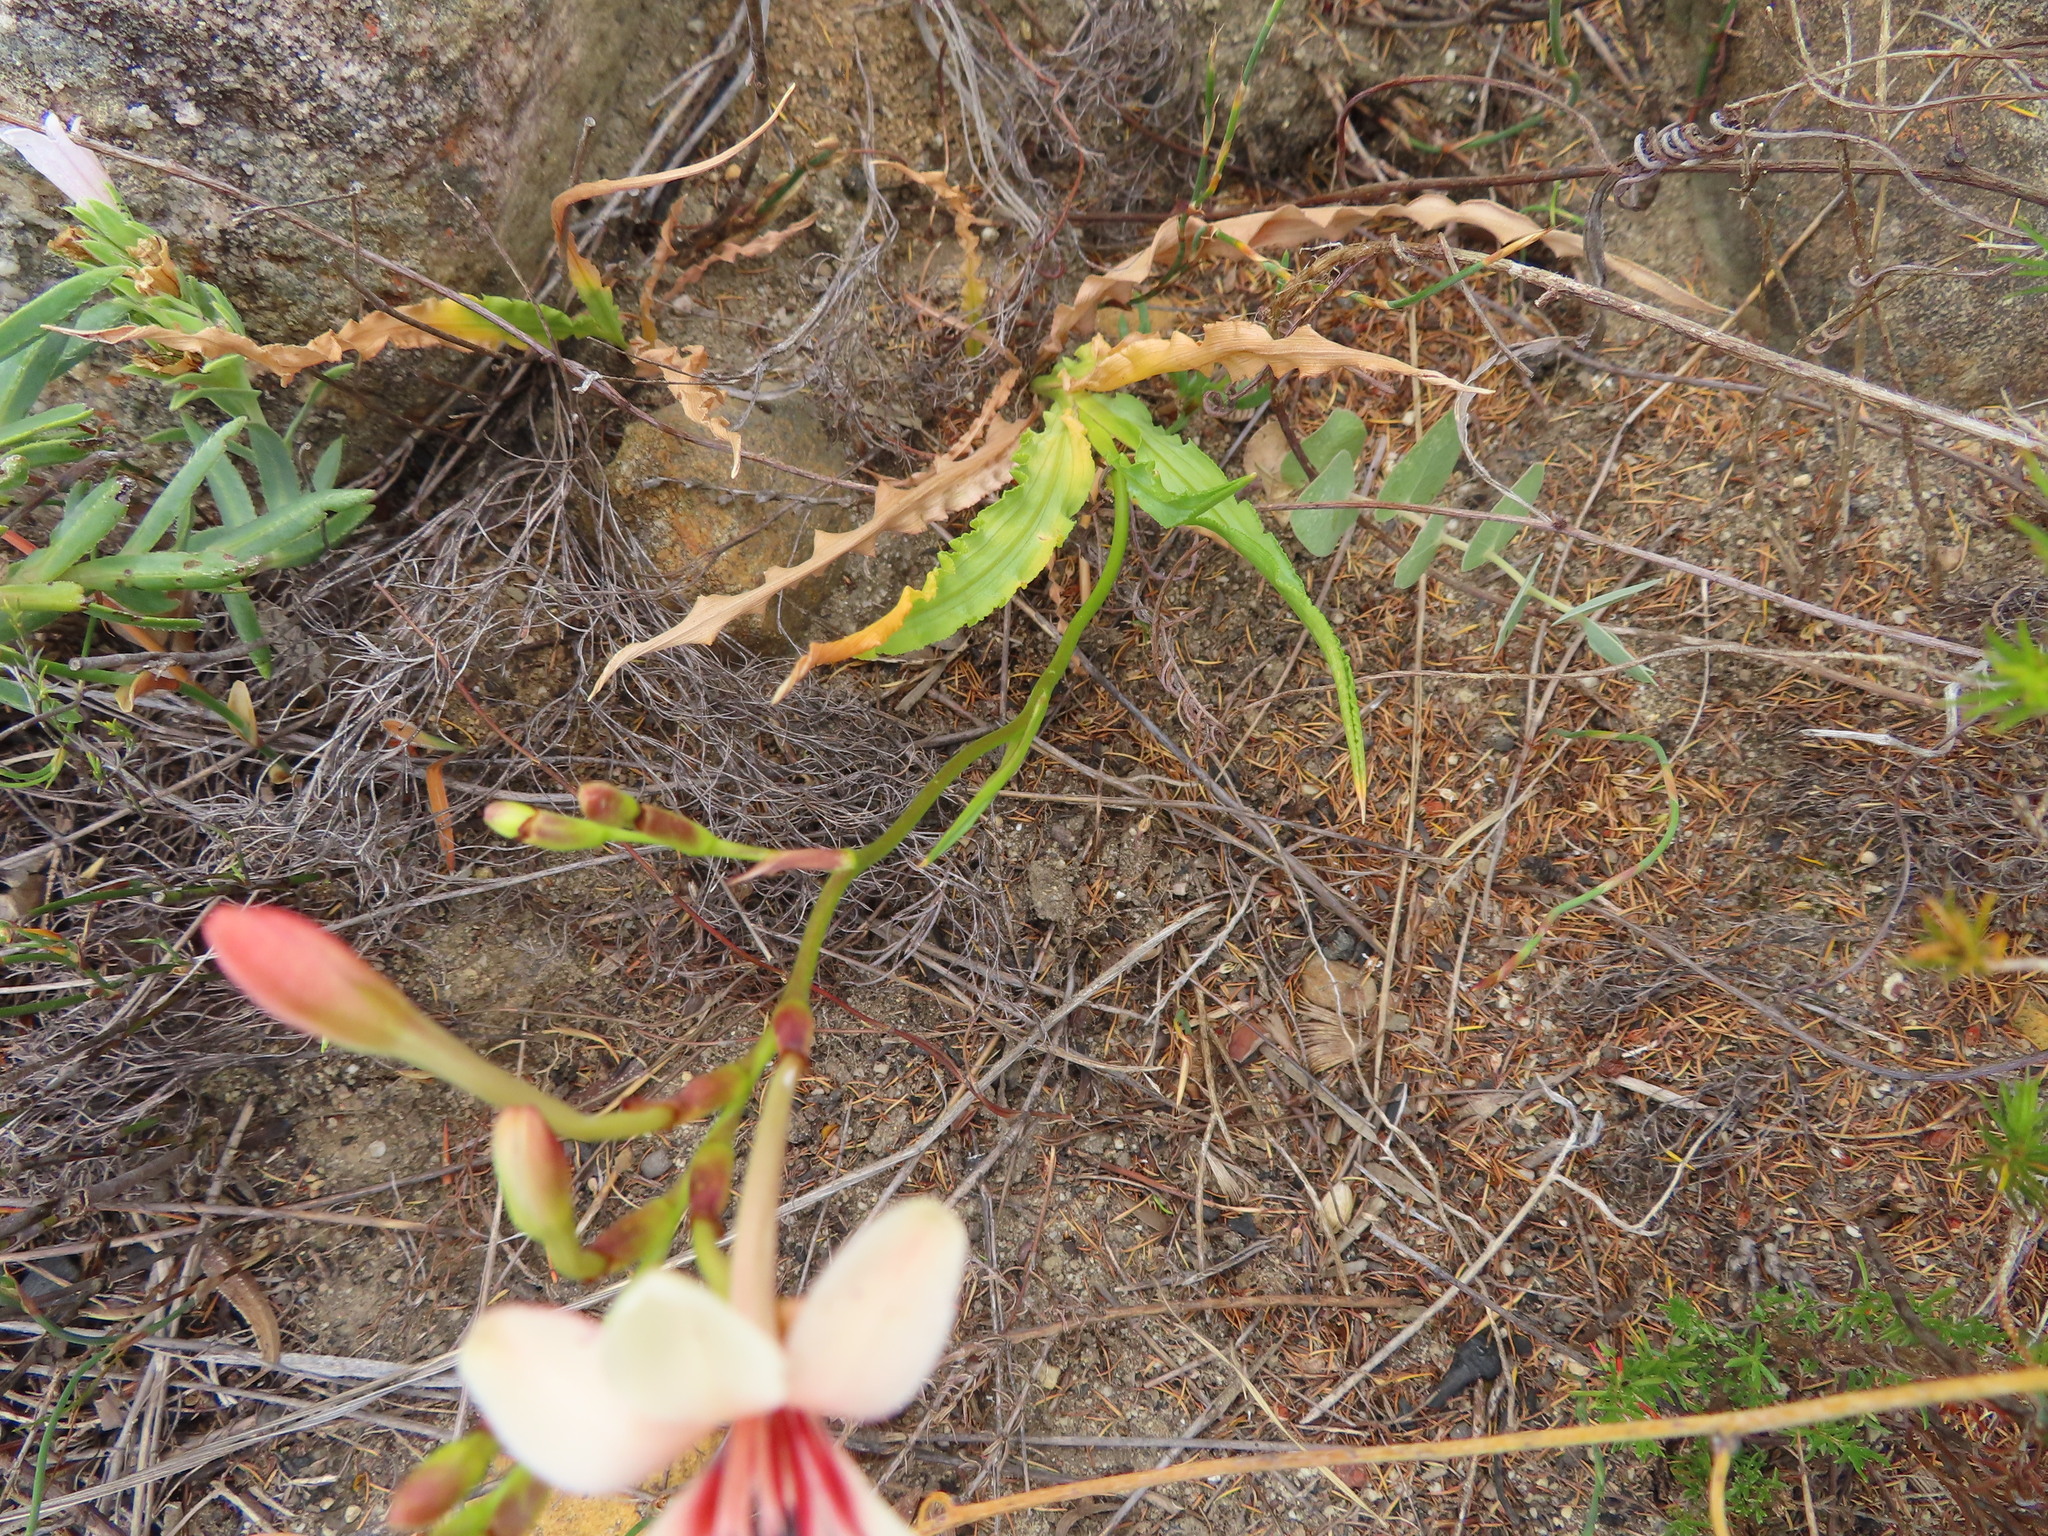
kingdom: Plantae
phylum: Tracheophyta
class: Liliopsida
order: Asparagales
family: Iridaceae
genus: Tritonia
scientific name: Tritonia undulata
